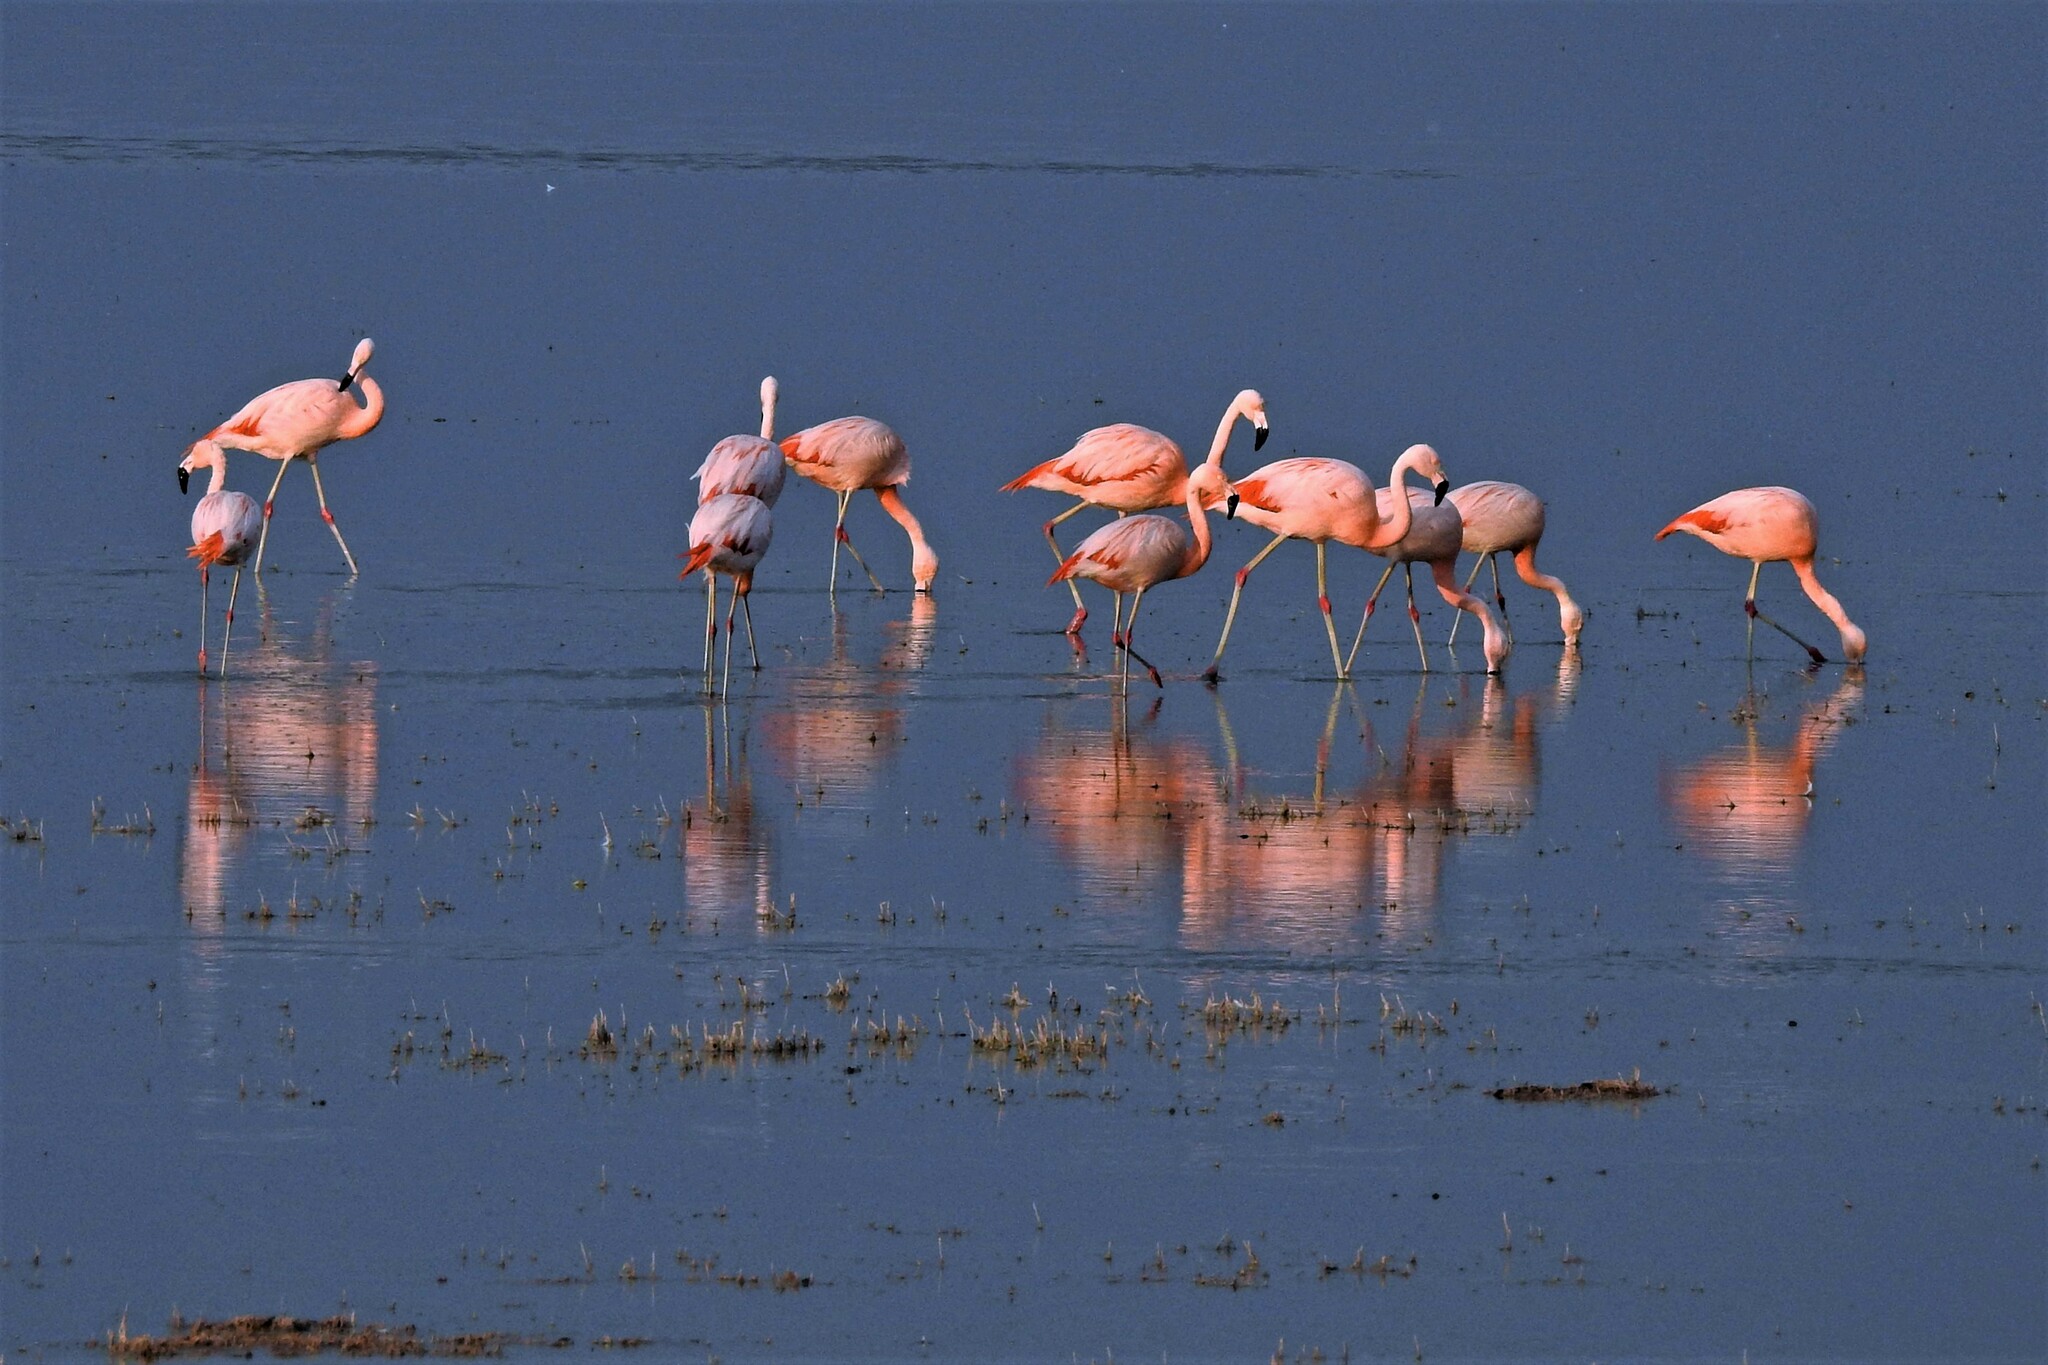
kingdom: Animalia
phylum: Chordata
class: Aves
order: Phoenicopteriformes
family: Phoenicopteridae
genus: Phoenicopterus
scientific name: Phoenicopterus chilensis
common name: Chilean flamingo
